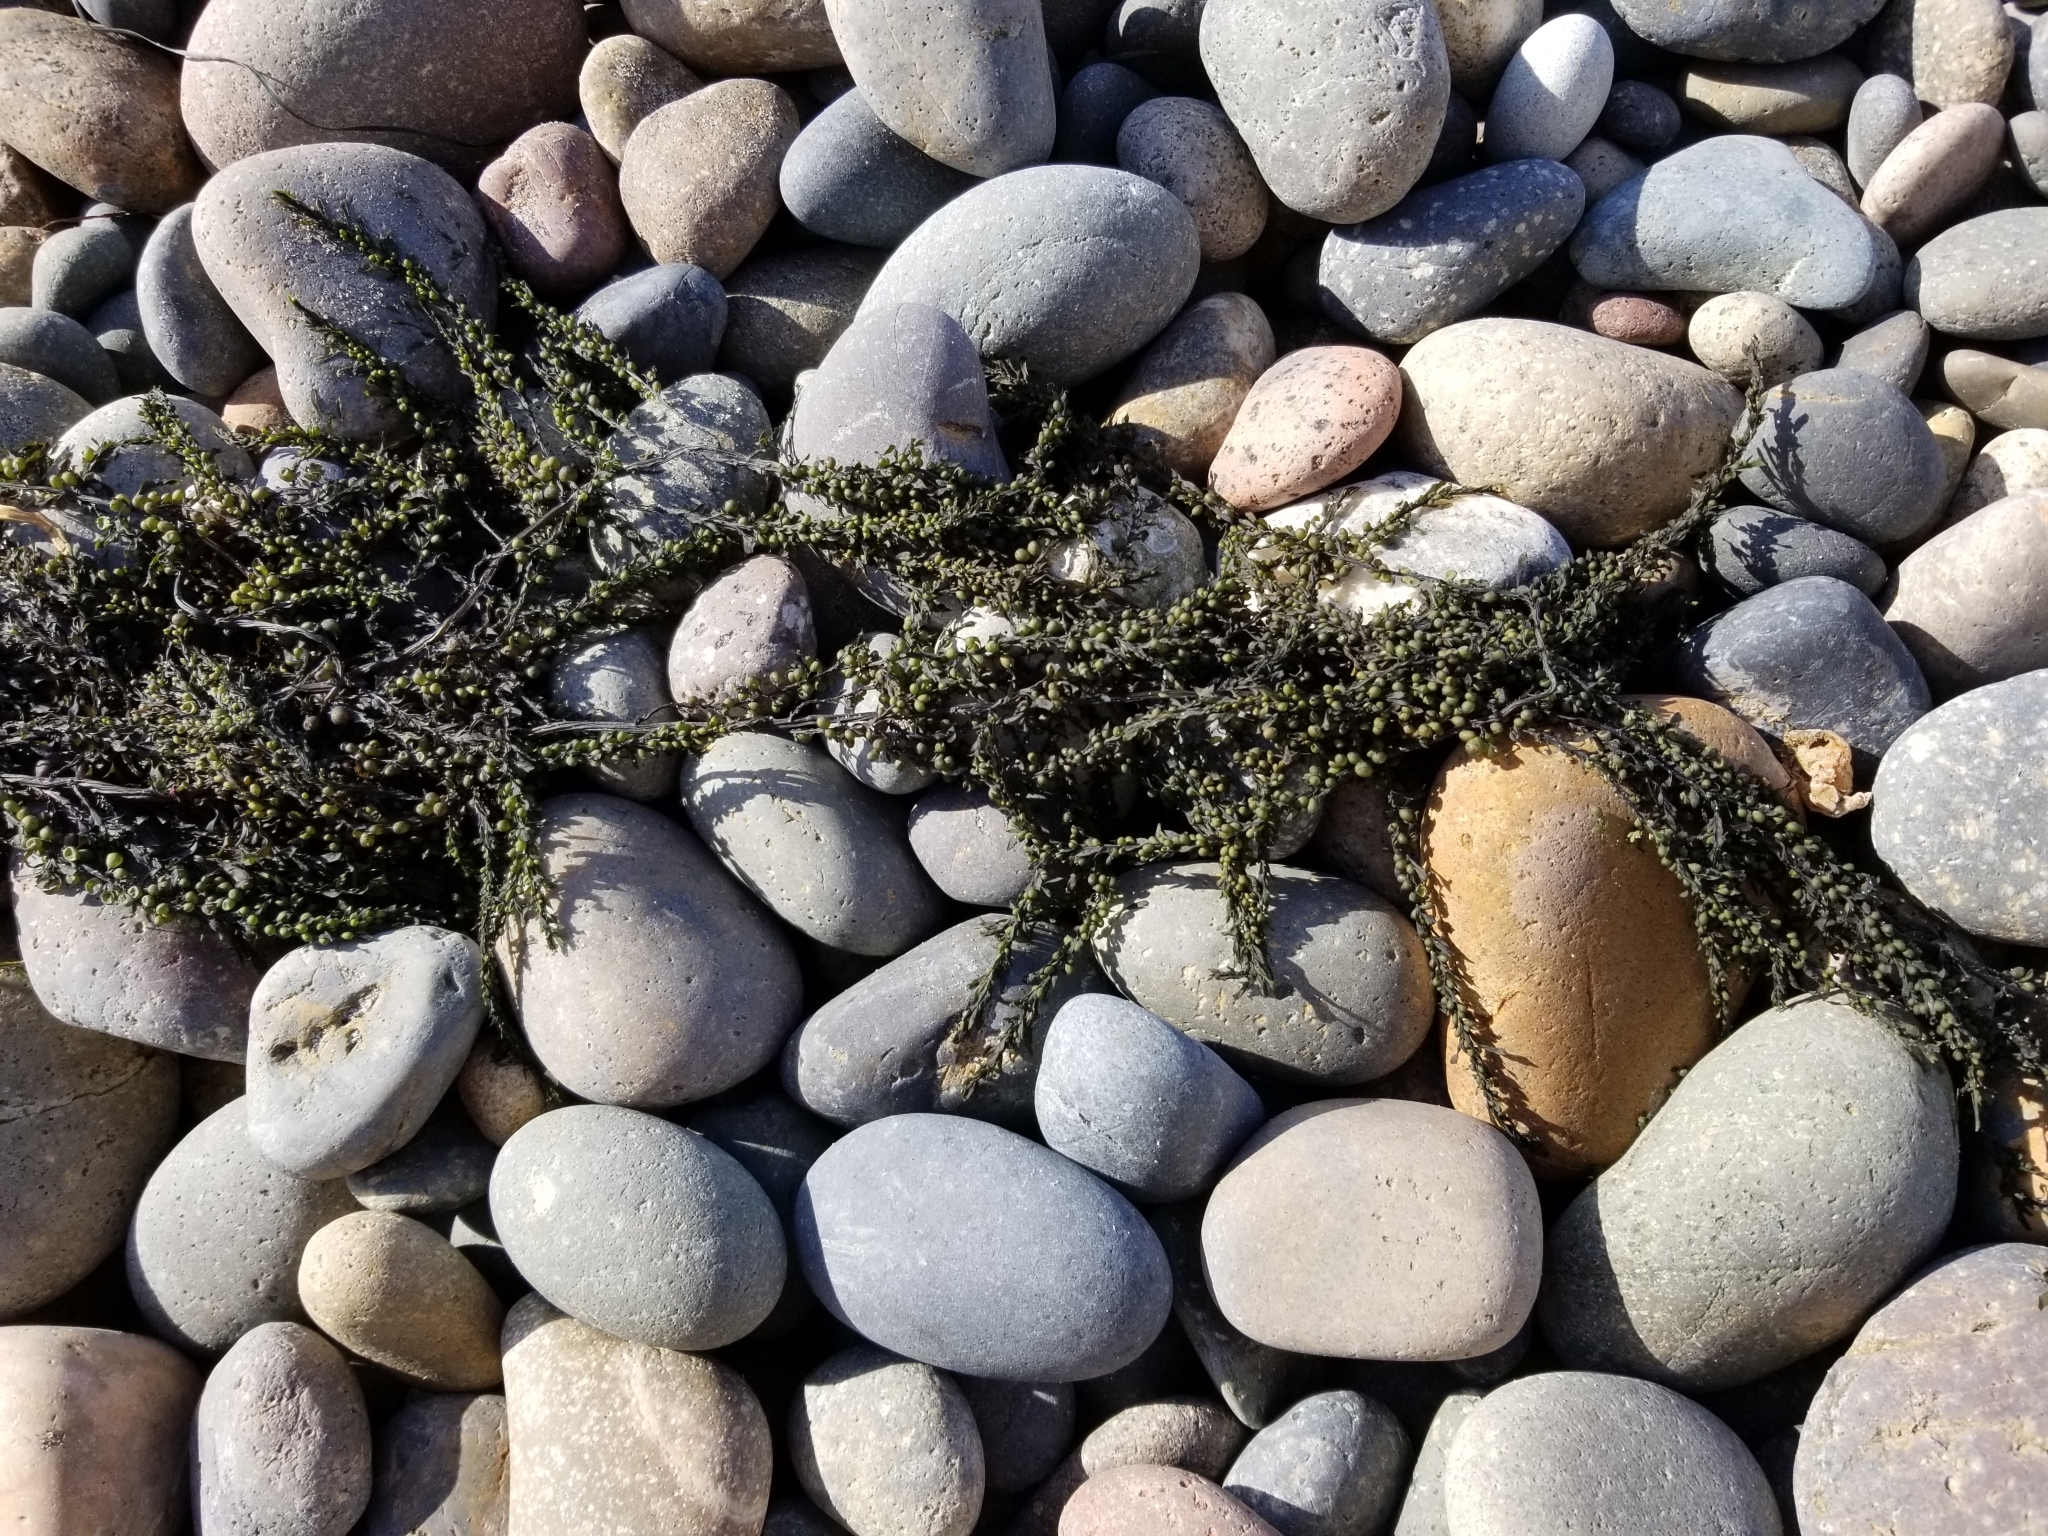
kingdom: Chromista
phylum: Ochrophyta
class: Phaeophyceae
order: Fucales
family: Sargassaceae
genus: Sargassum
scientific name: Sargassum muticum
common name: Japweed
